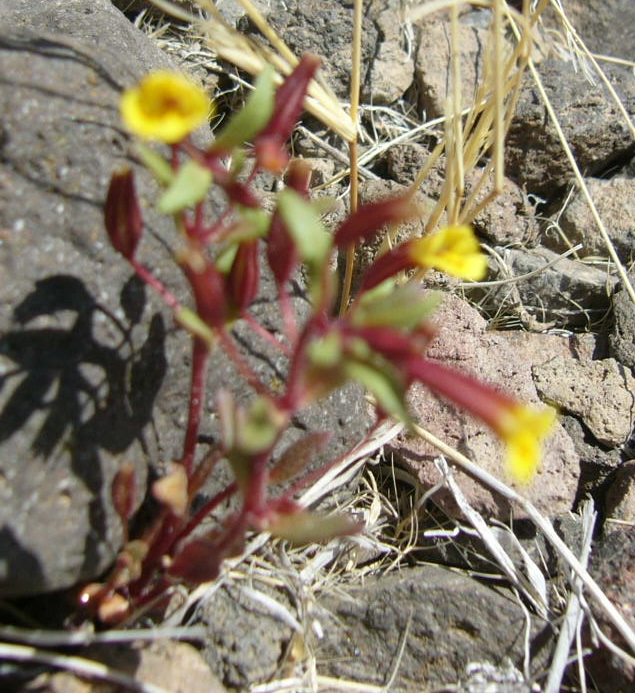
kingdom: Plantae
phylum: Tracheophyta
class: Magnoliopsida
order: Lamiales
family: Phrymaceae
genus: Erythranthe
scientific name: Erythranthe rubella
